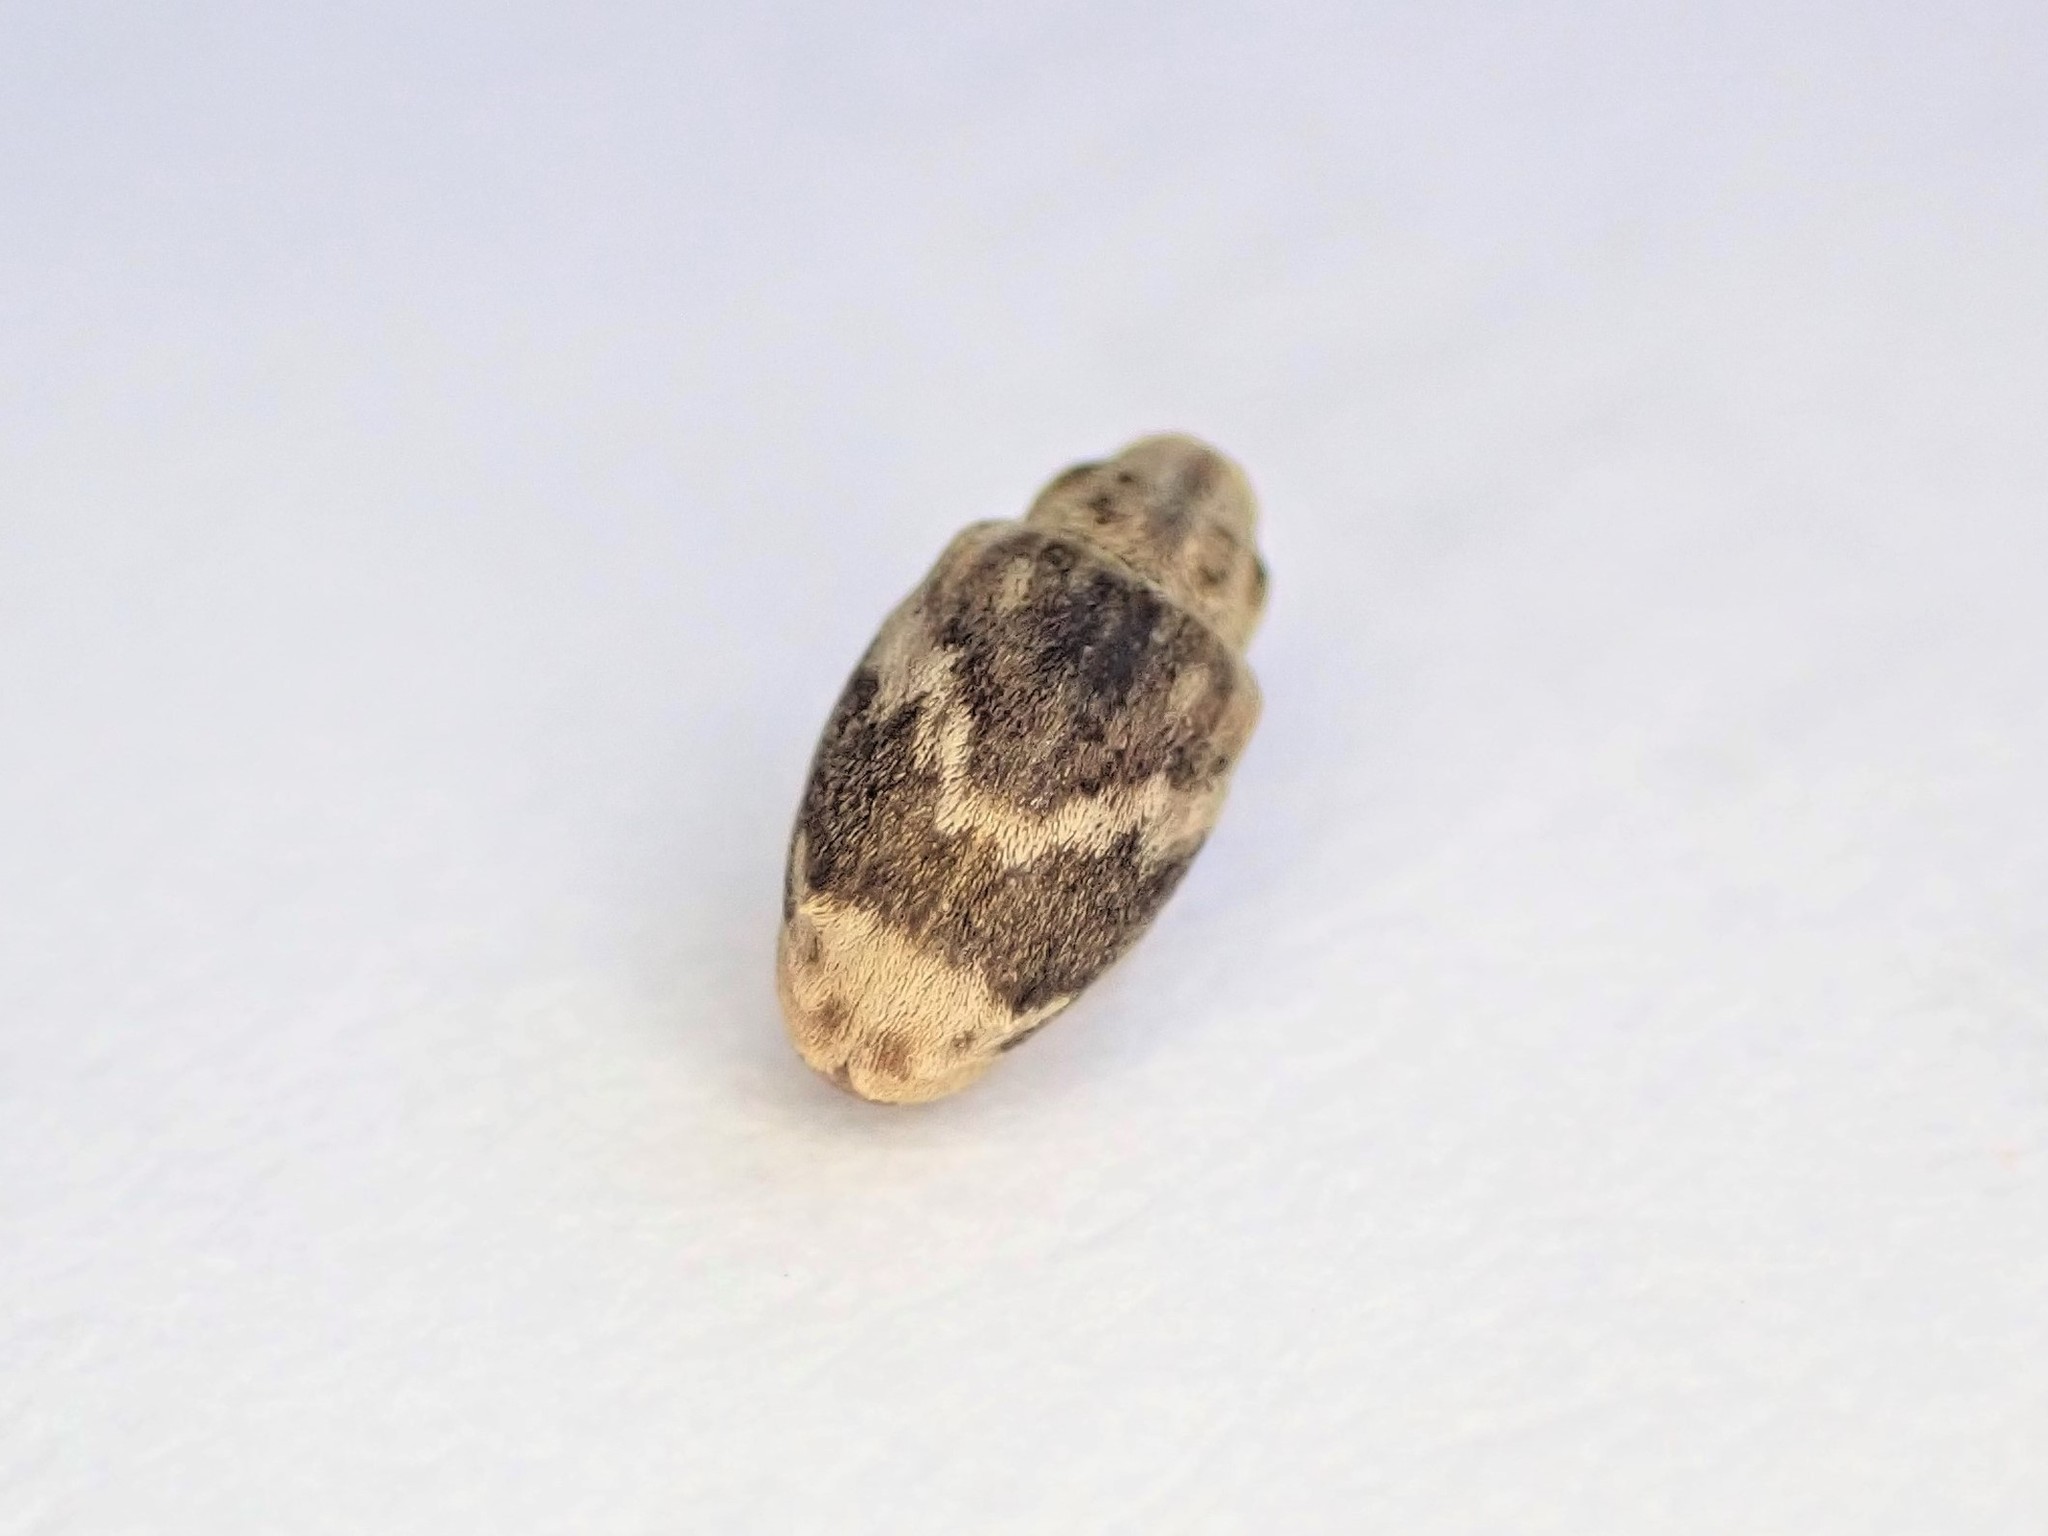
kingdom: Animalia
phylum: Arthropoda
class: Insecta
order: Coleoptera
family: Curculionidae
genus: Aneuma
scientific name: Aneuma compta
